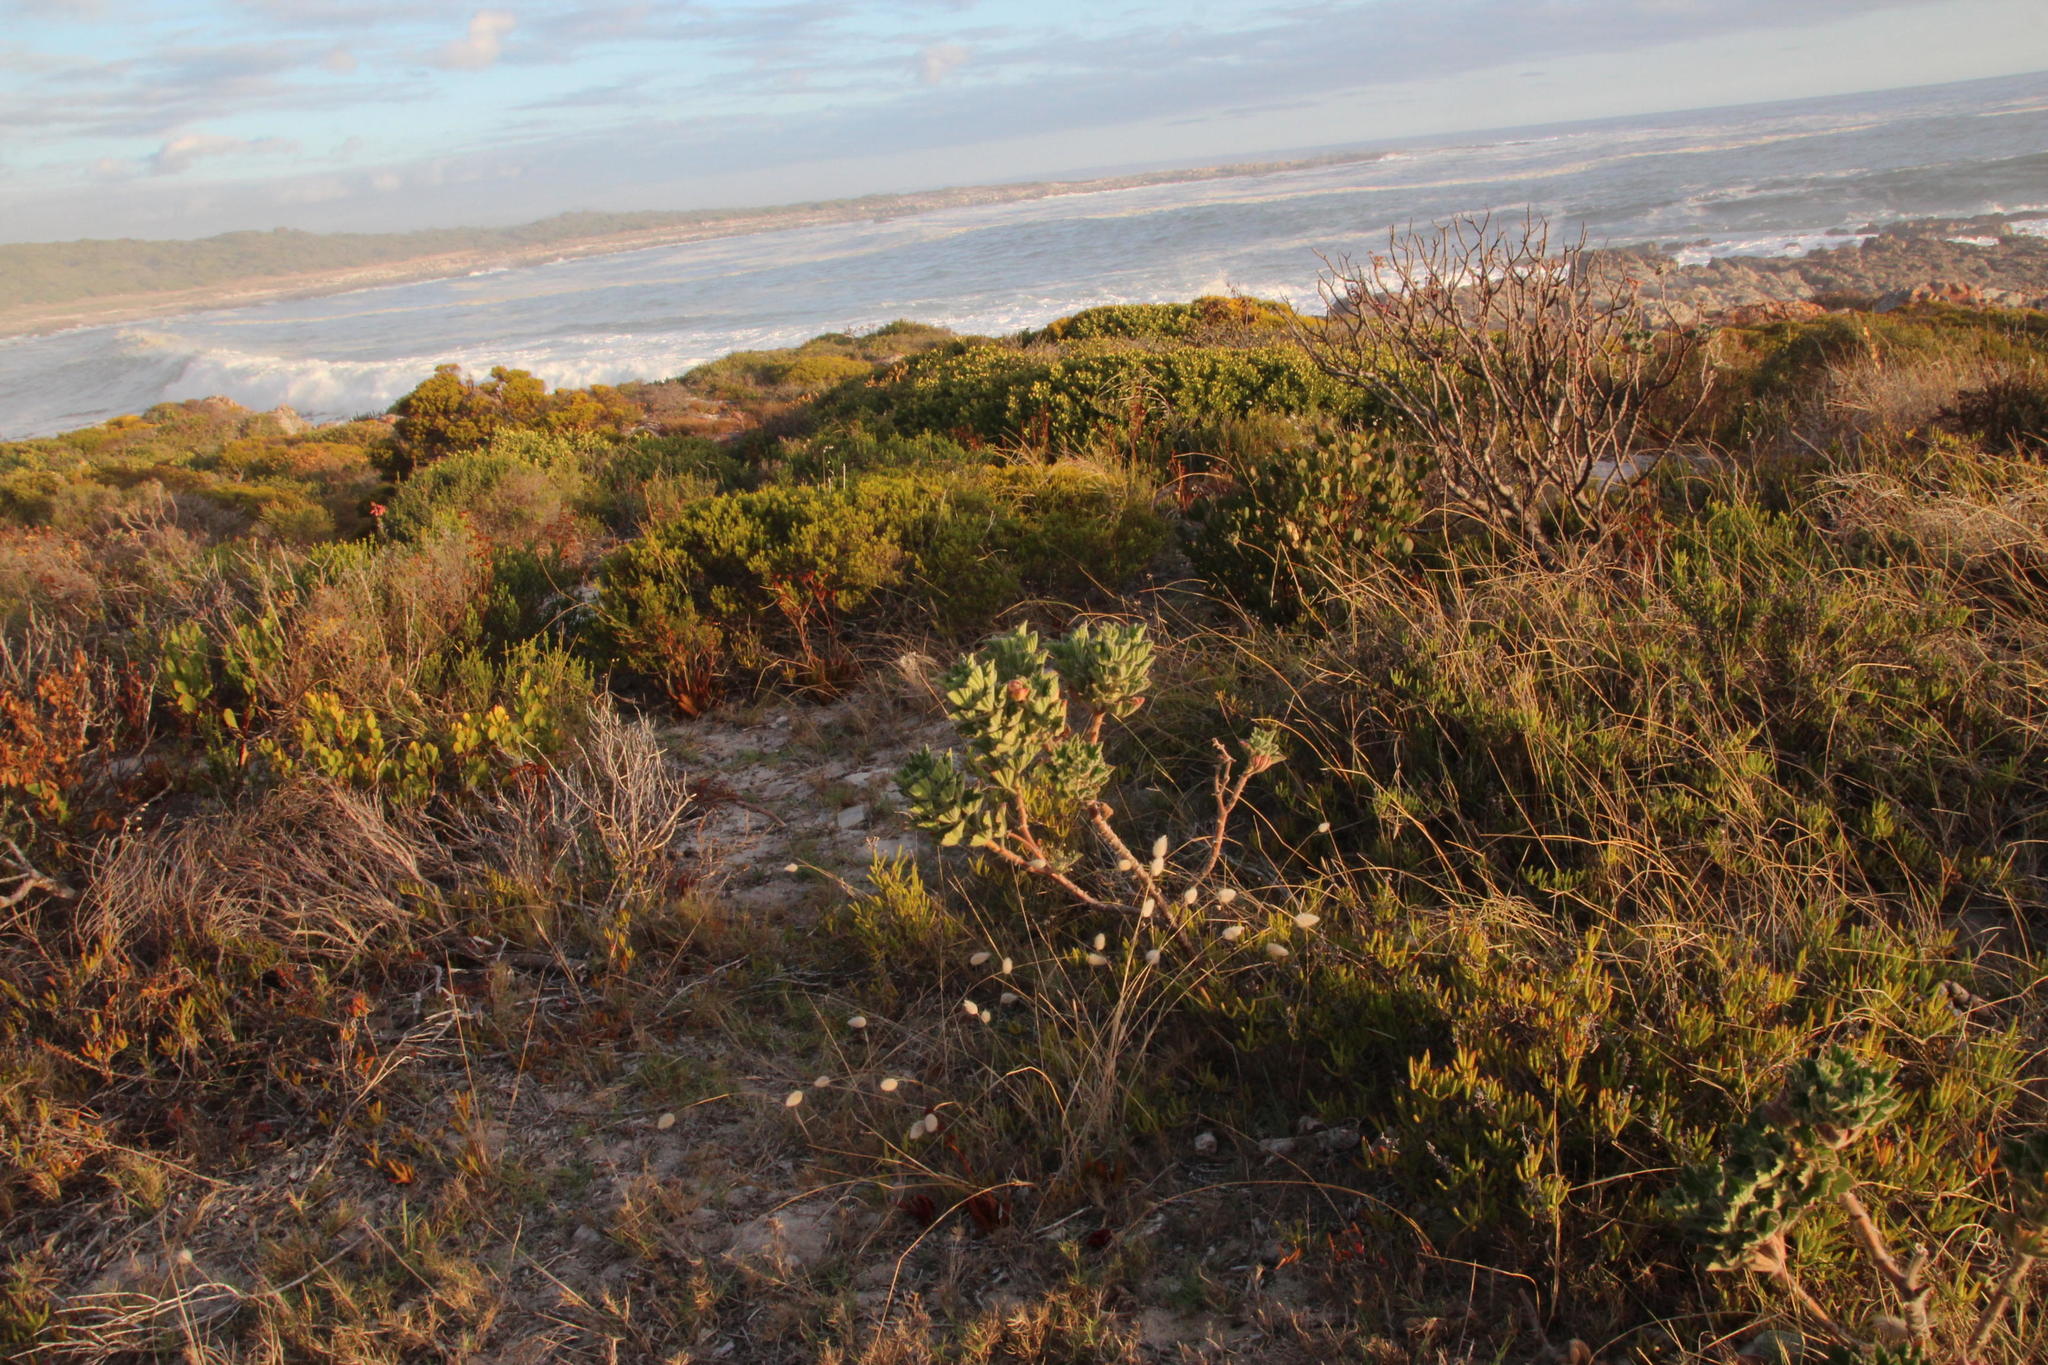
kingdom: Plantae
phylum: Tracheophyta
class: Magnoliopsida
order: Geraniales
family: Geraniaceae
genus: Pelargonium
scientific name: Pelargonium cucullatum
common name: Tree pelargonium
